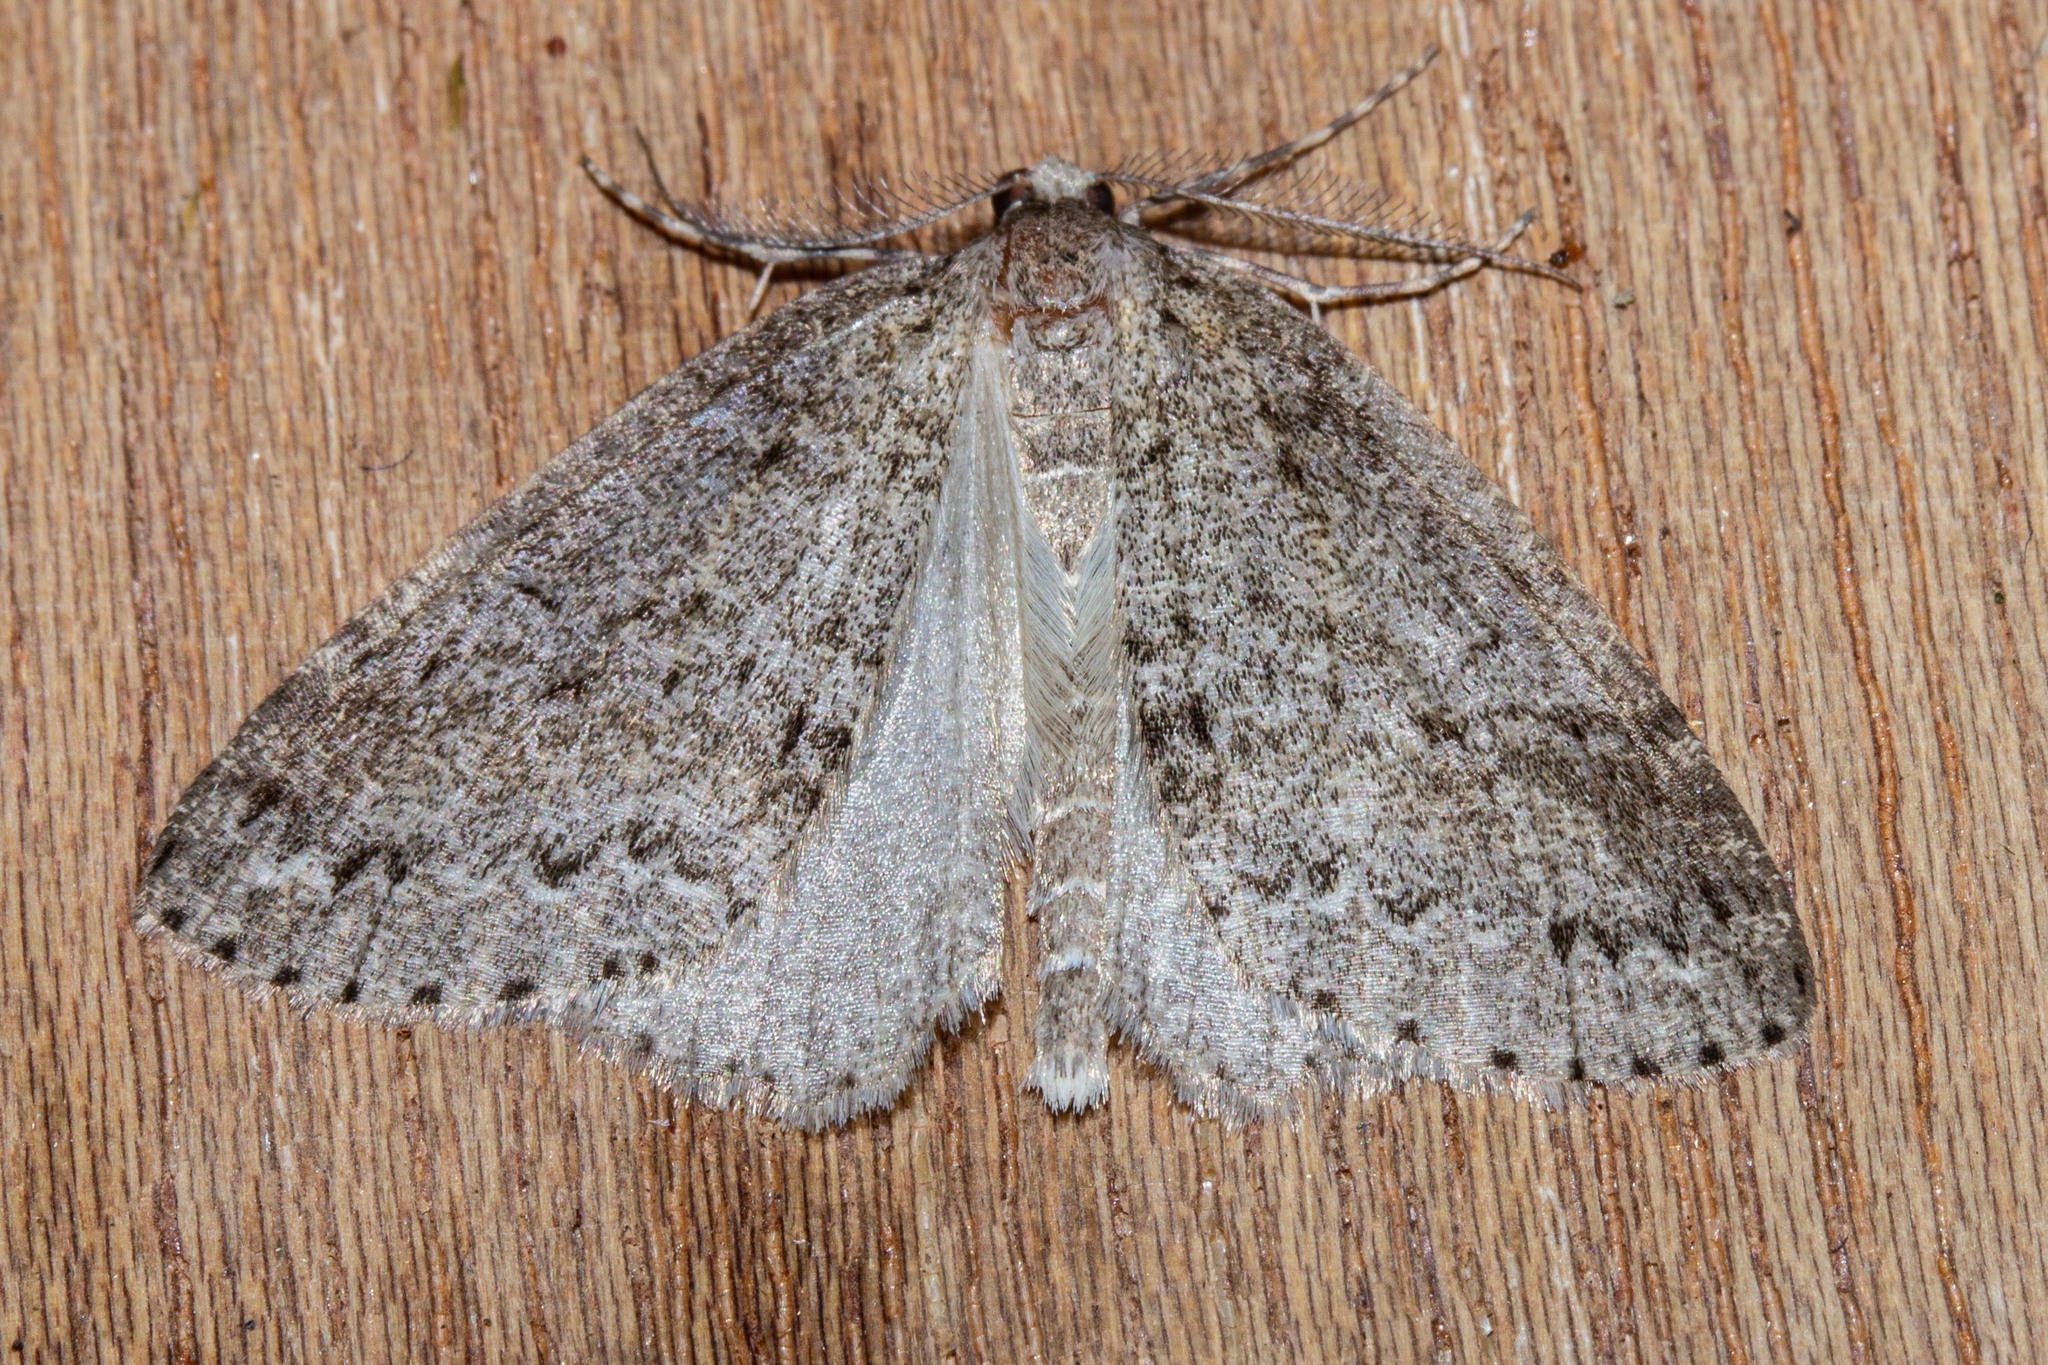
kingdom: Animalia
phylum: Arthropoda
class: Insecta
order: Lepidoptera
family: Geometridae
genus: Pseudocoremia
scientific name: Pseudocoremia fenerata
